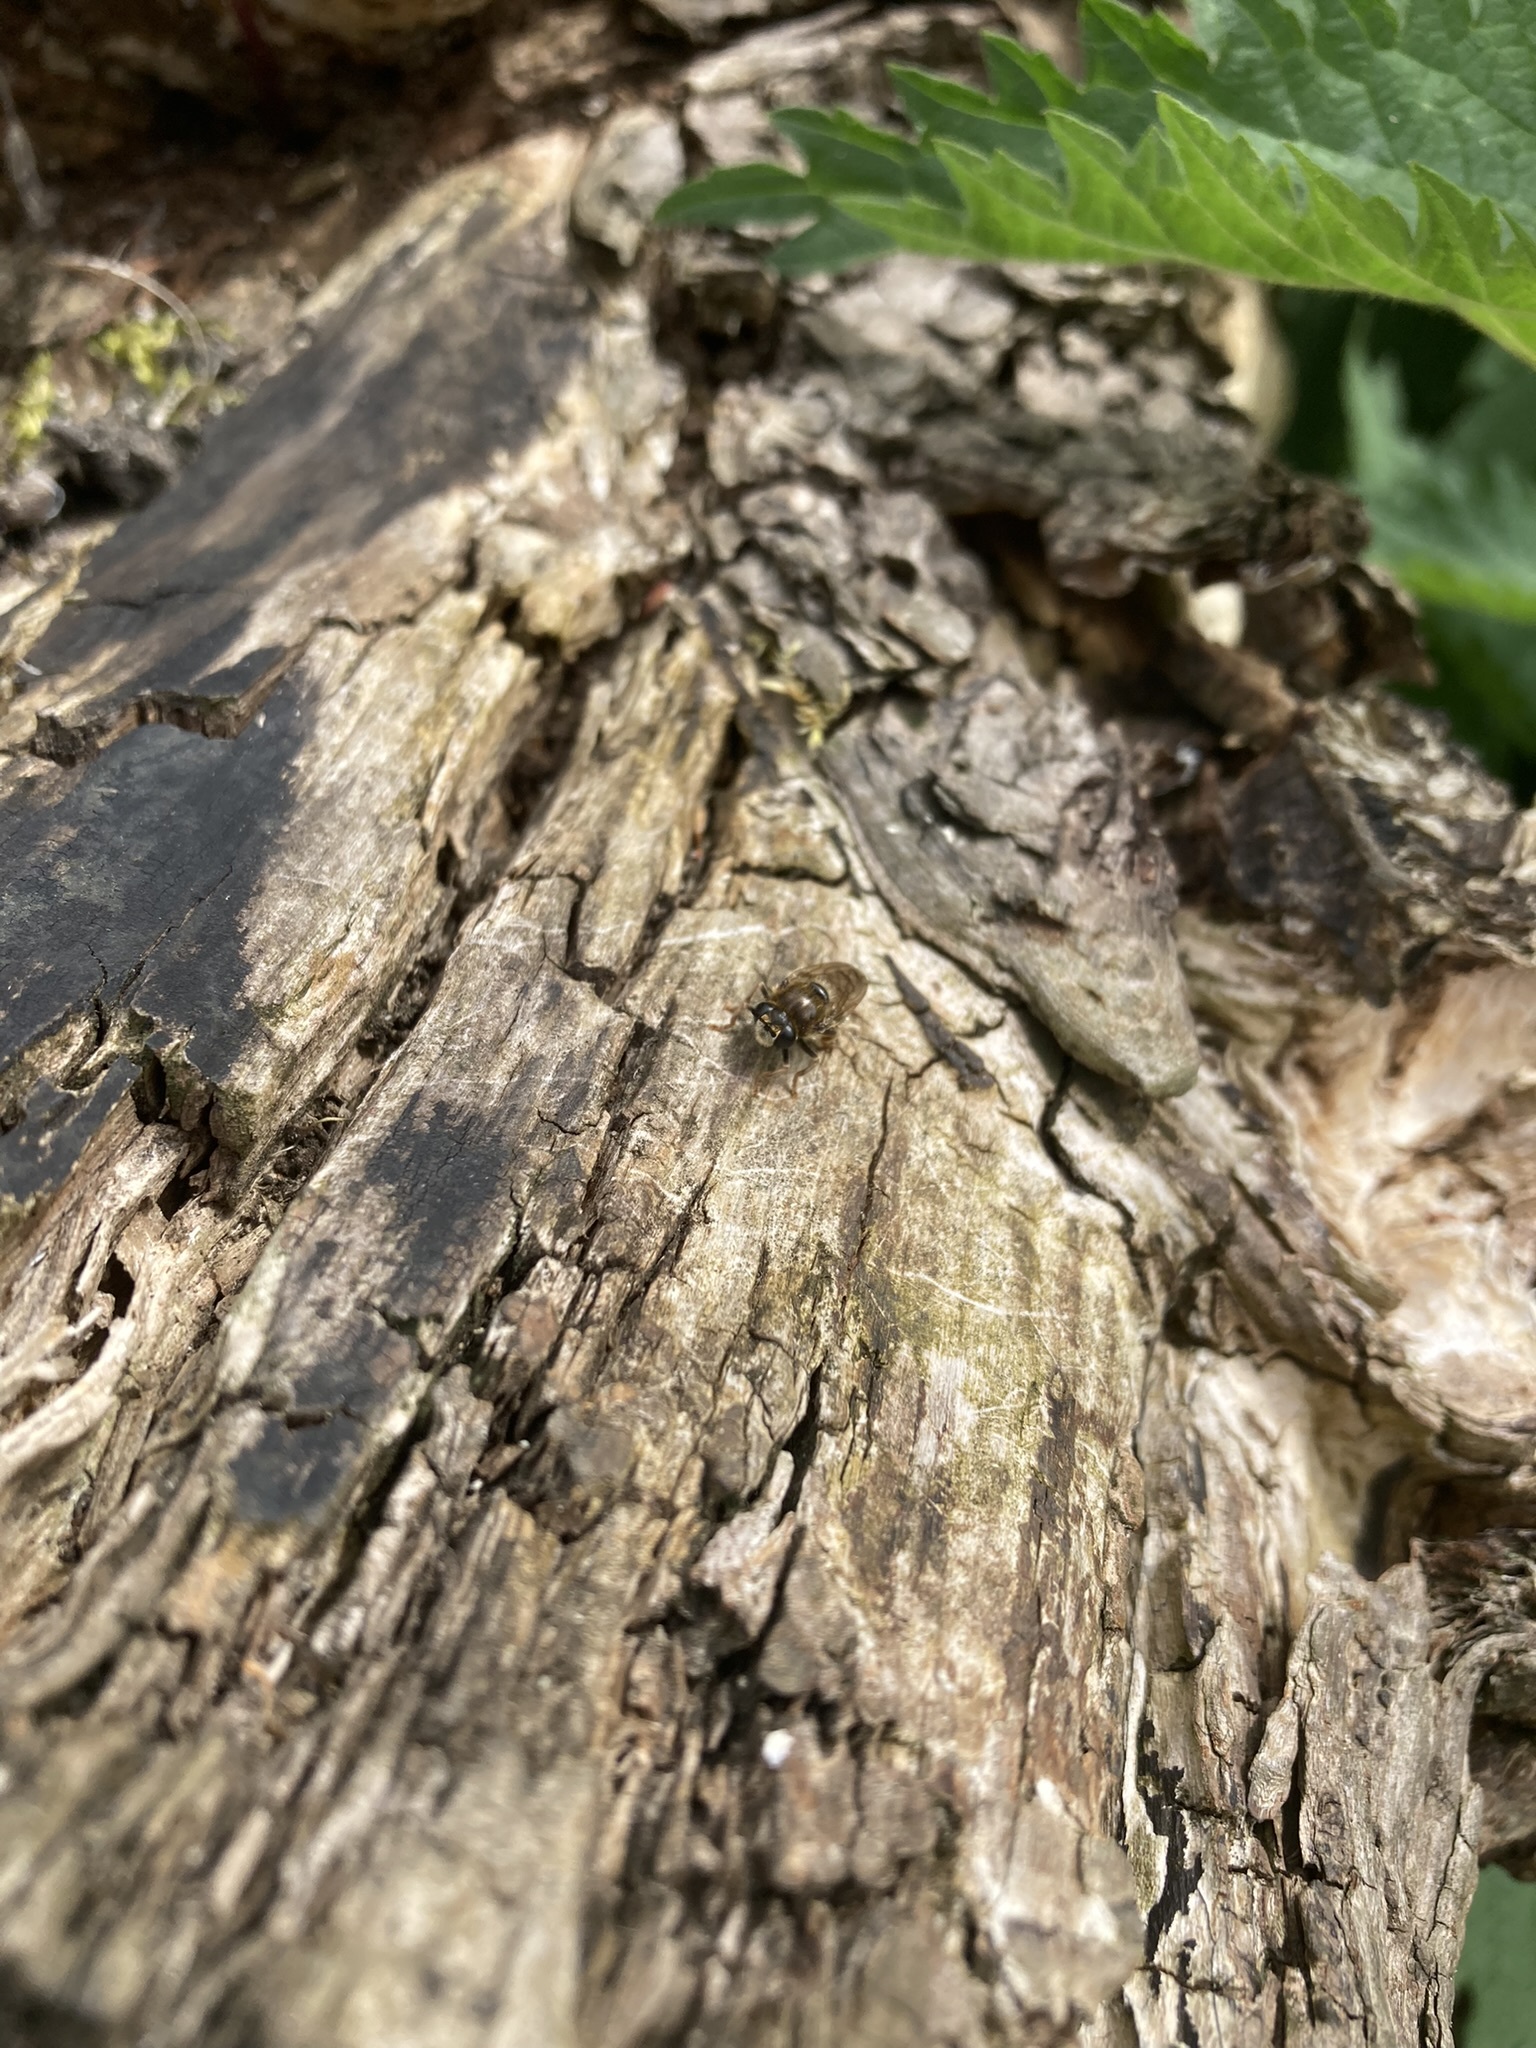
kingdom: Animalia
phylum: Arthropoda
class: Insecta
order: Diptera
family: Syrphidae
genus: Microdon
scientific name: Microdon
